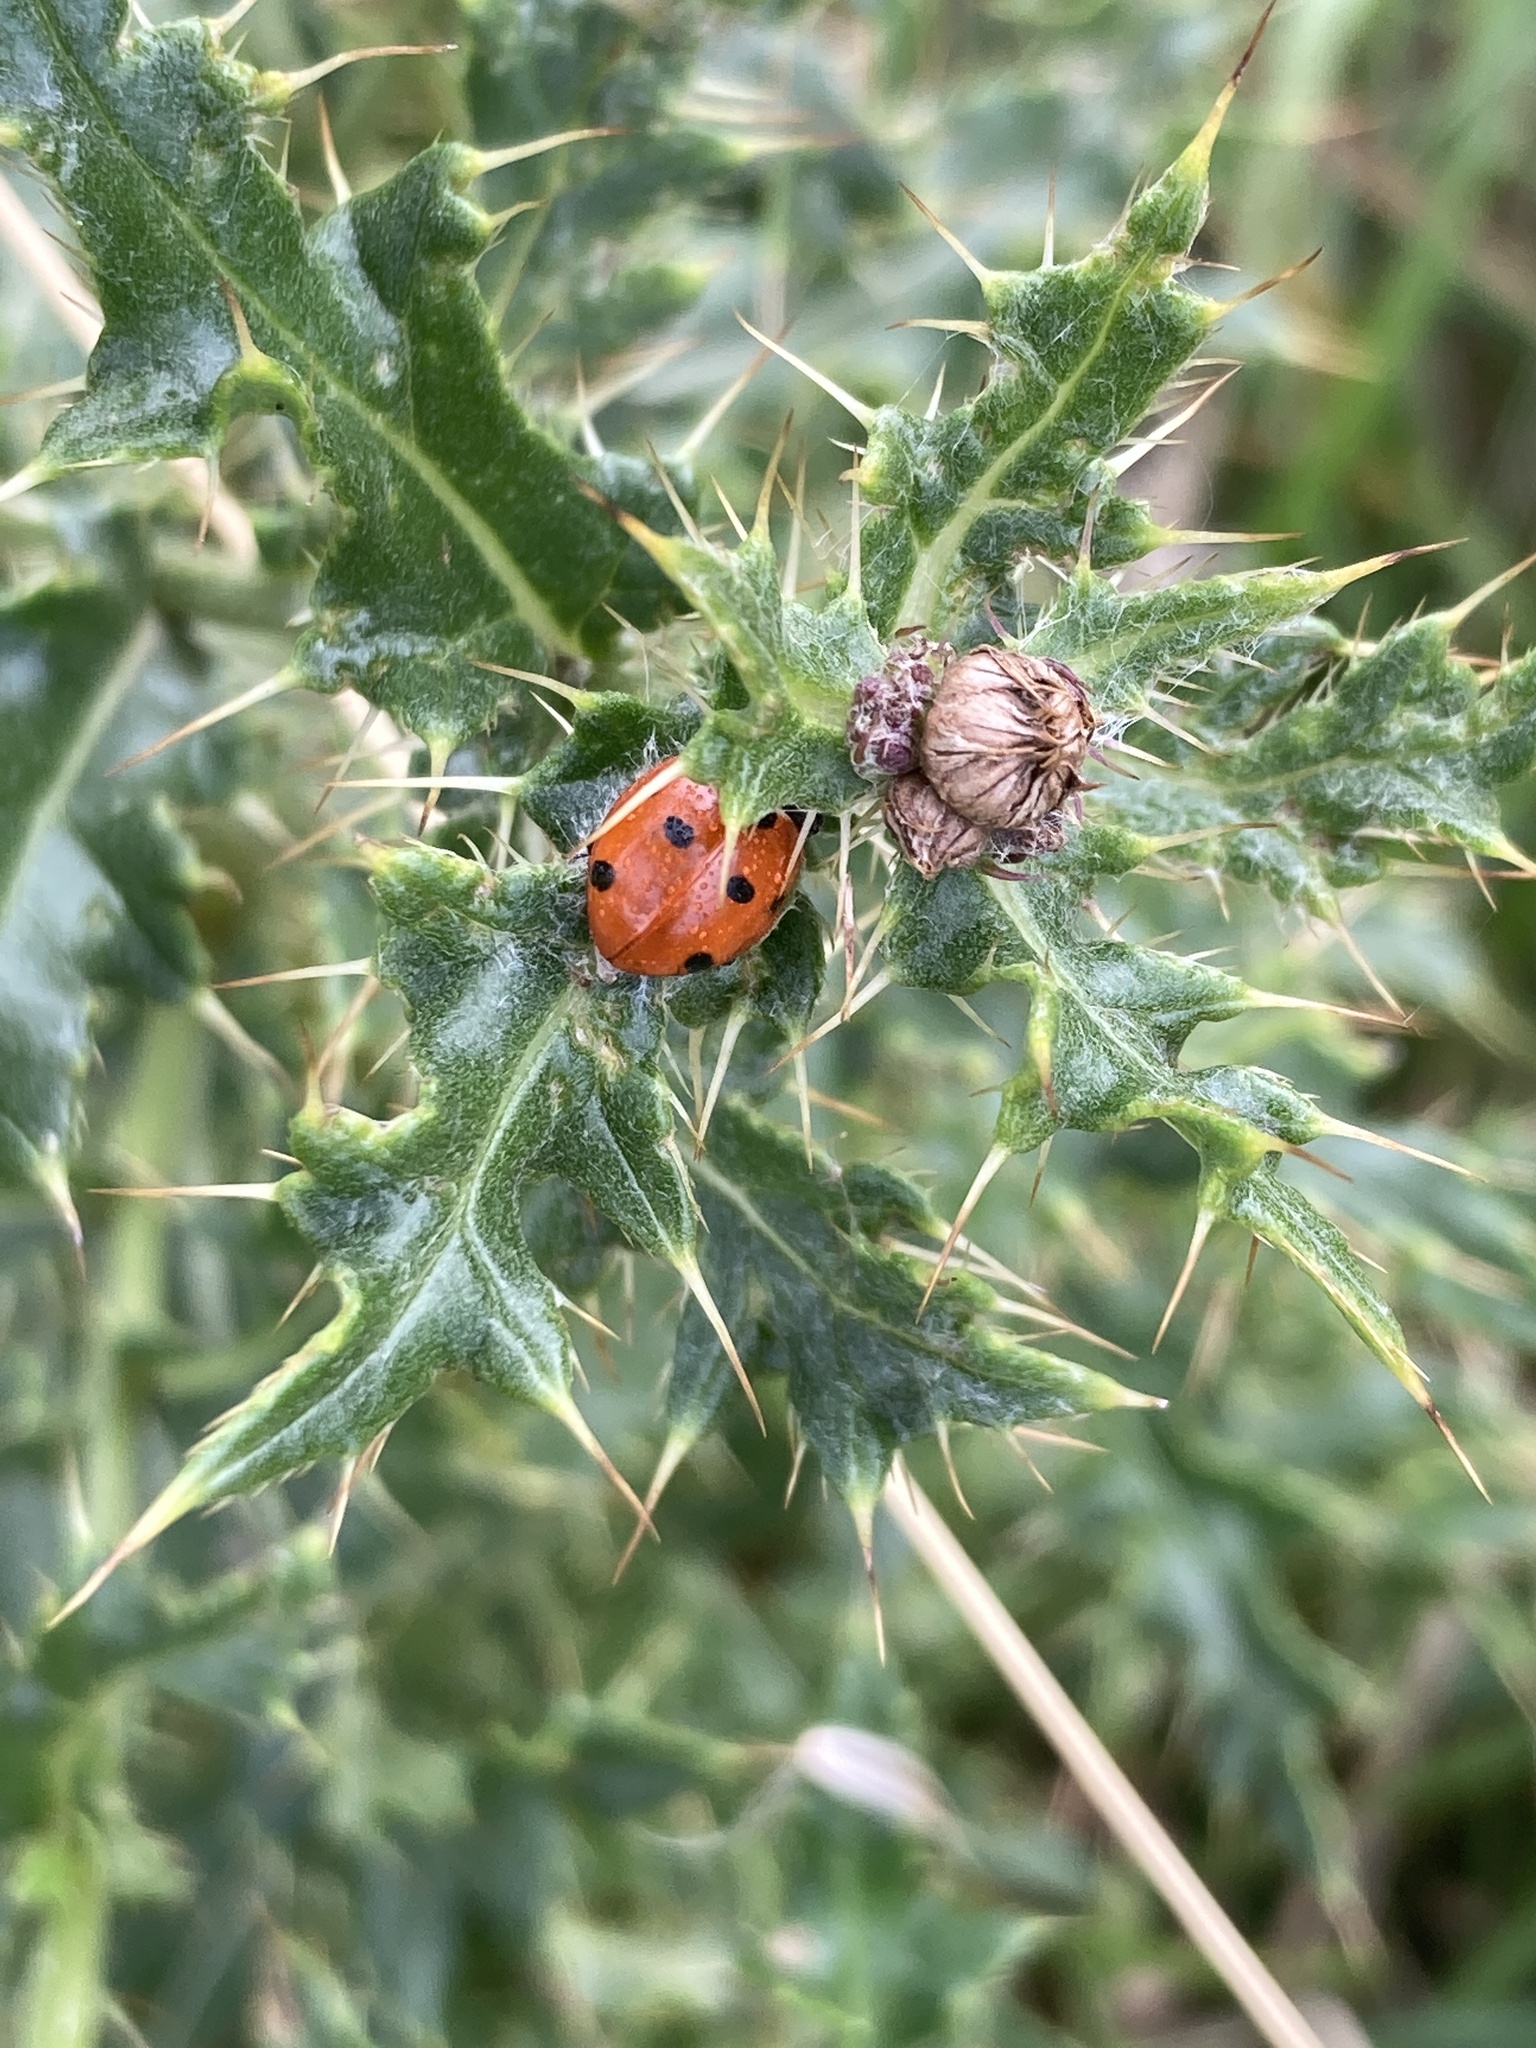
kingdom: Animalia
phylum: Arthropoda
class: Insecta
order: Coleoptera
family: Coccinellidae
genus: Coccinella
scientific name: Coccinella septempunctata
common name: Sevenspotted lady beetle
